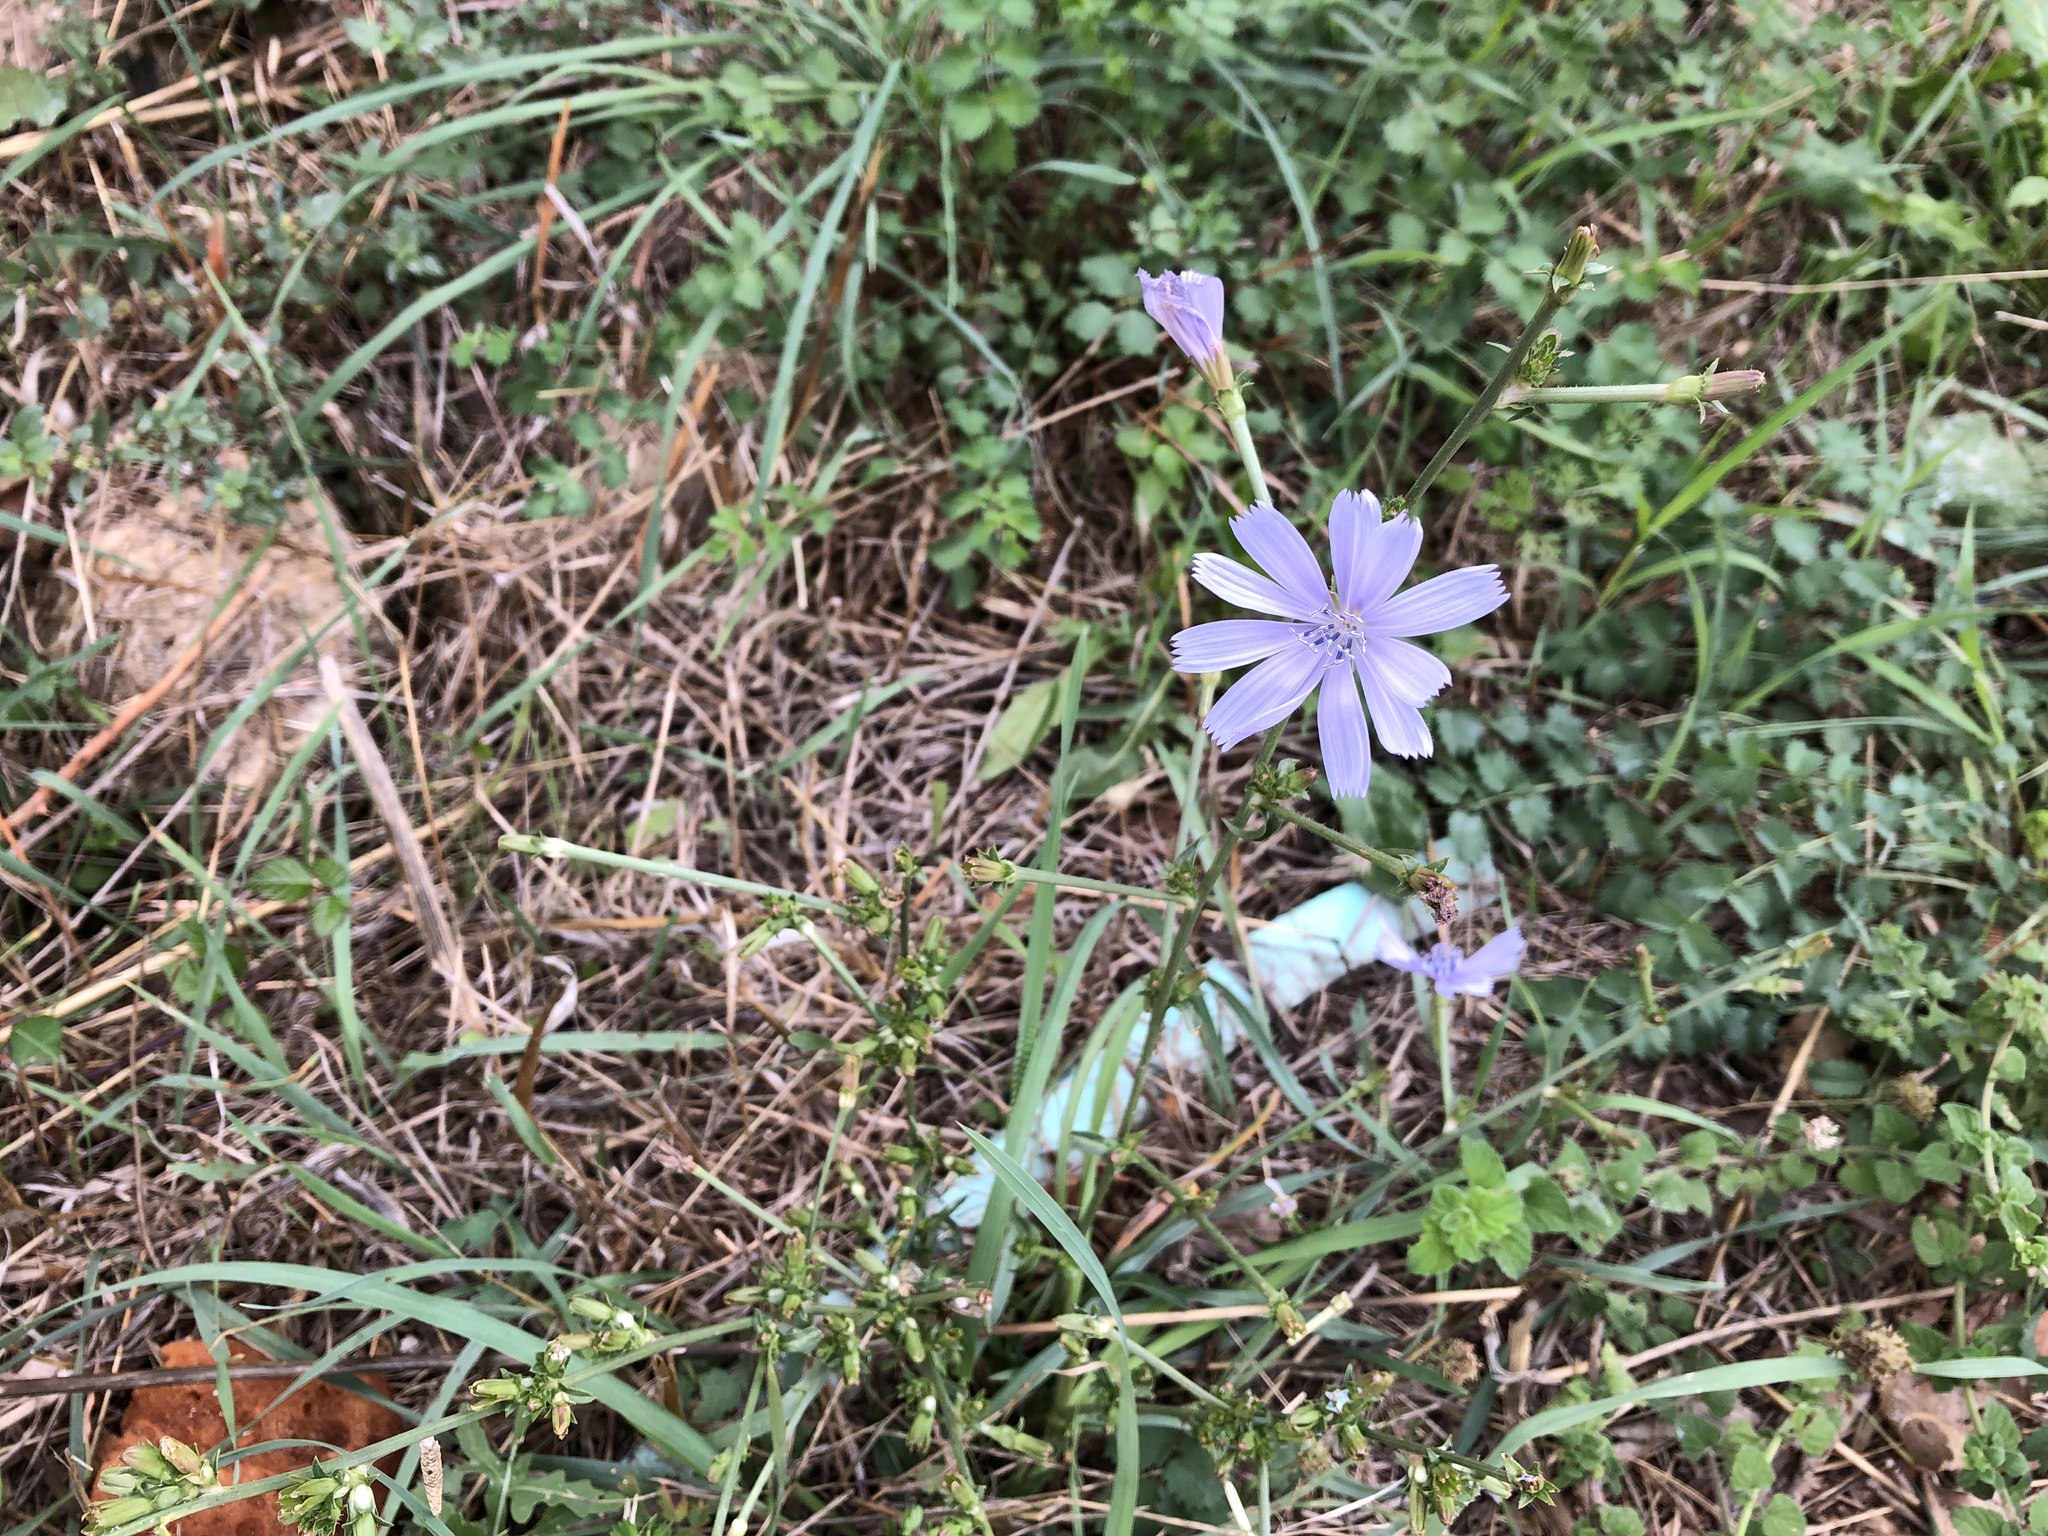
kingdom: Plantae
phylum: Tracheophyta
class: Magnoliopsida
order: Asterales
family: Asteraceae
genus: Cichorium
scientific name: Cichorium intybus
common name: Chicory
